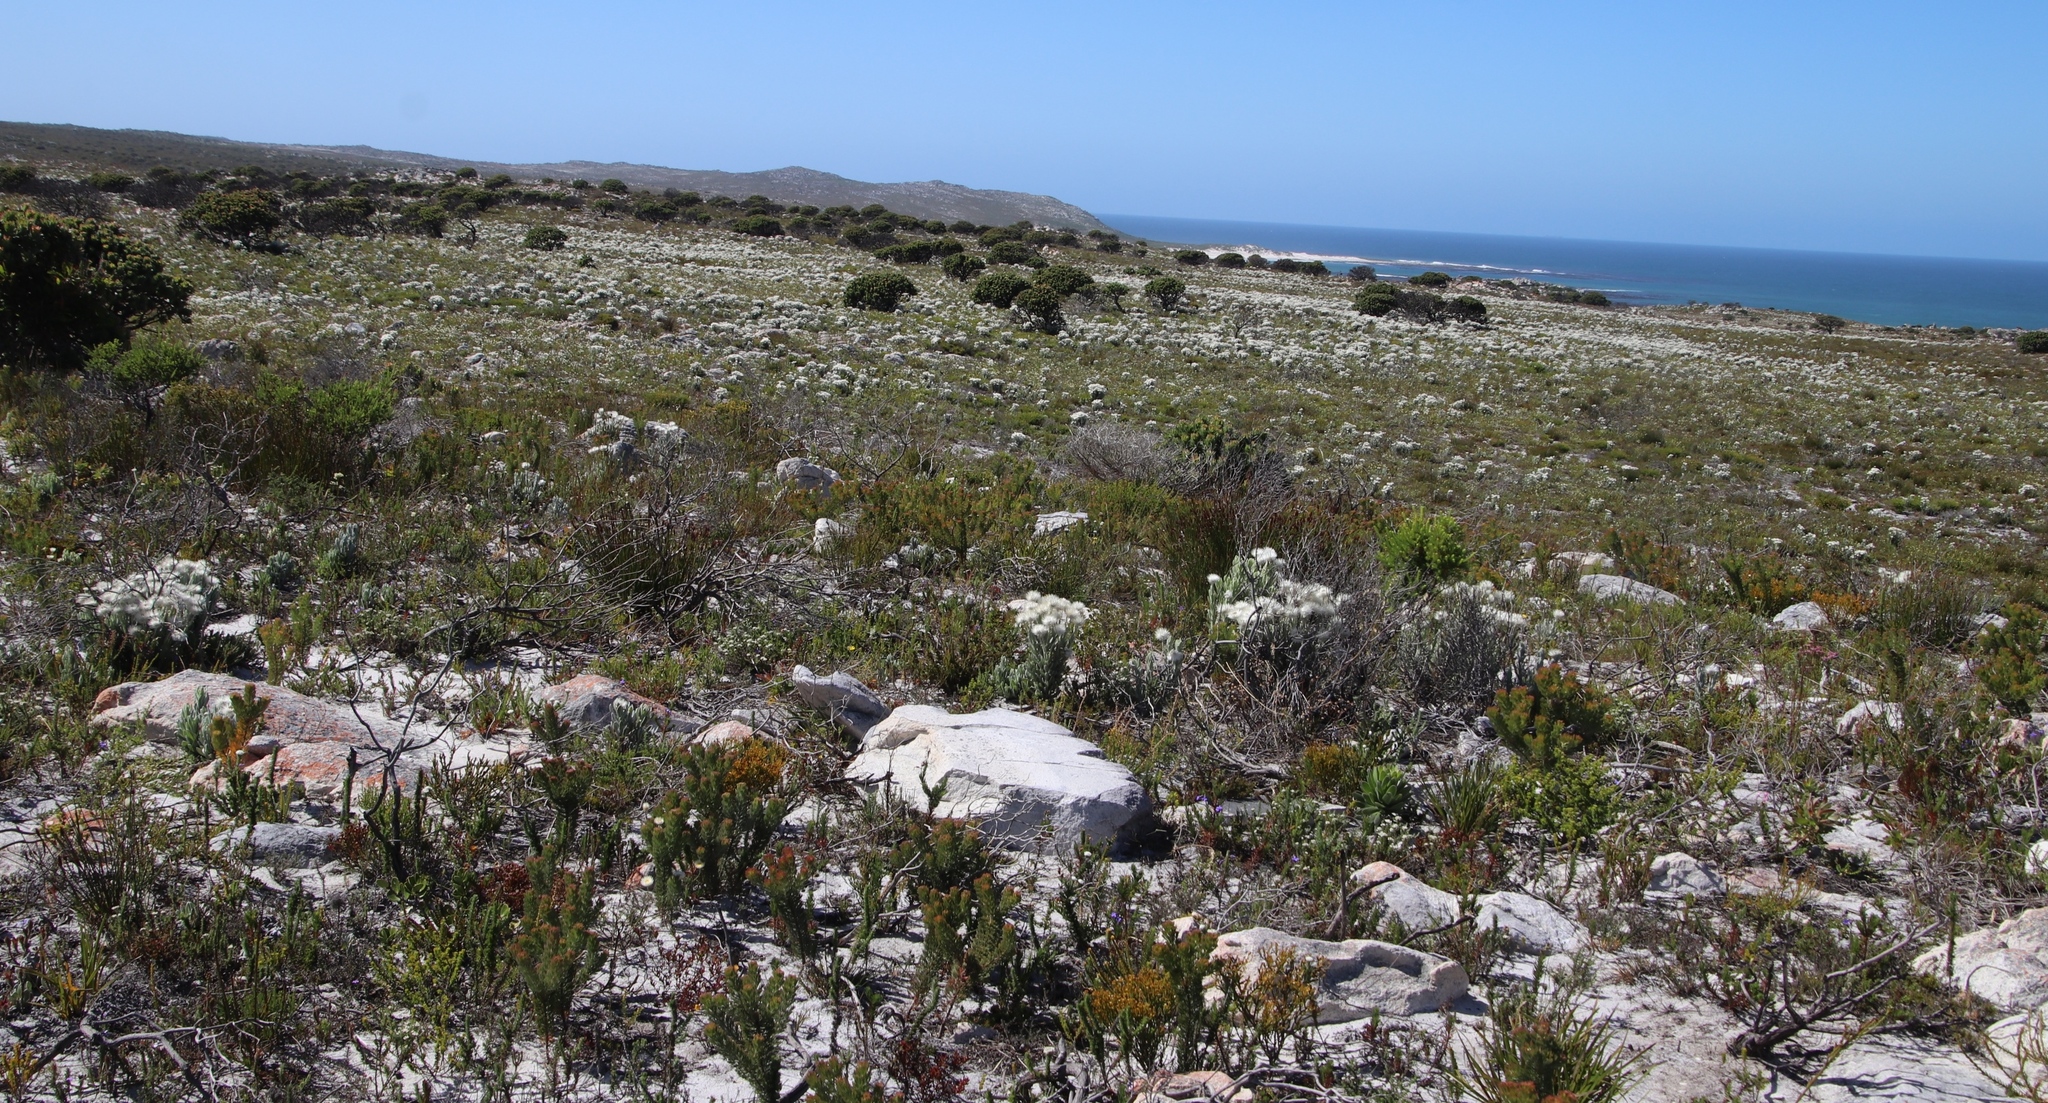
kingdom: Plantae
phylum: Tracheophyta
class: Magnoliopsida
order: Asterales
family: Asteraceae
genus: Syncarpha
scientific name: Syncarpha vestita
